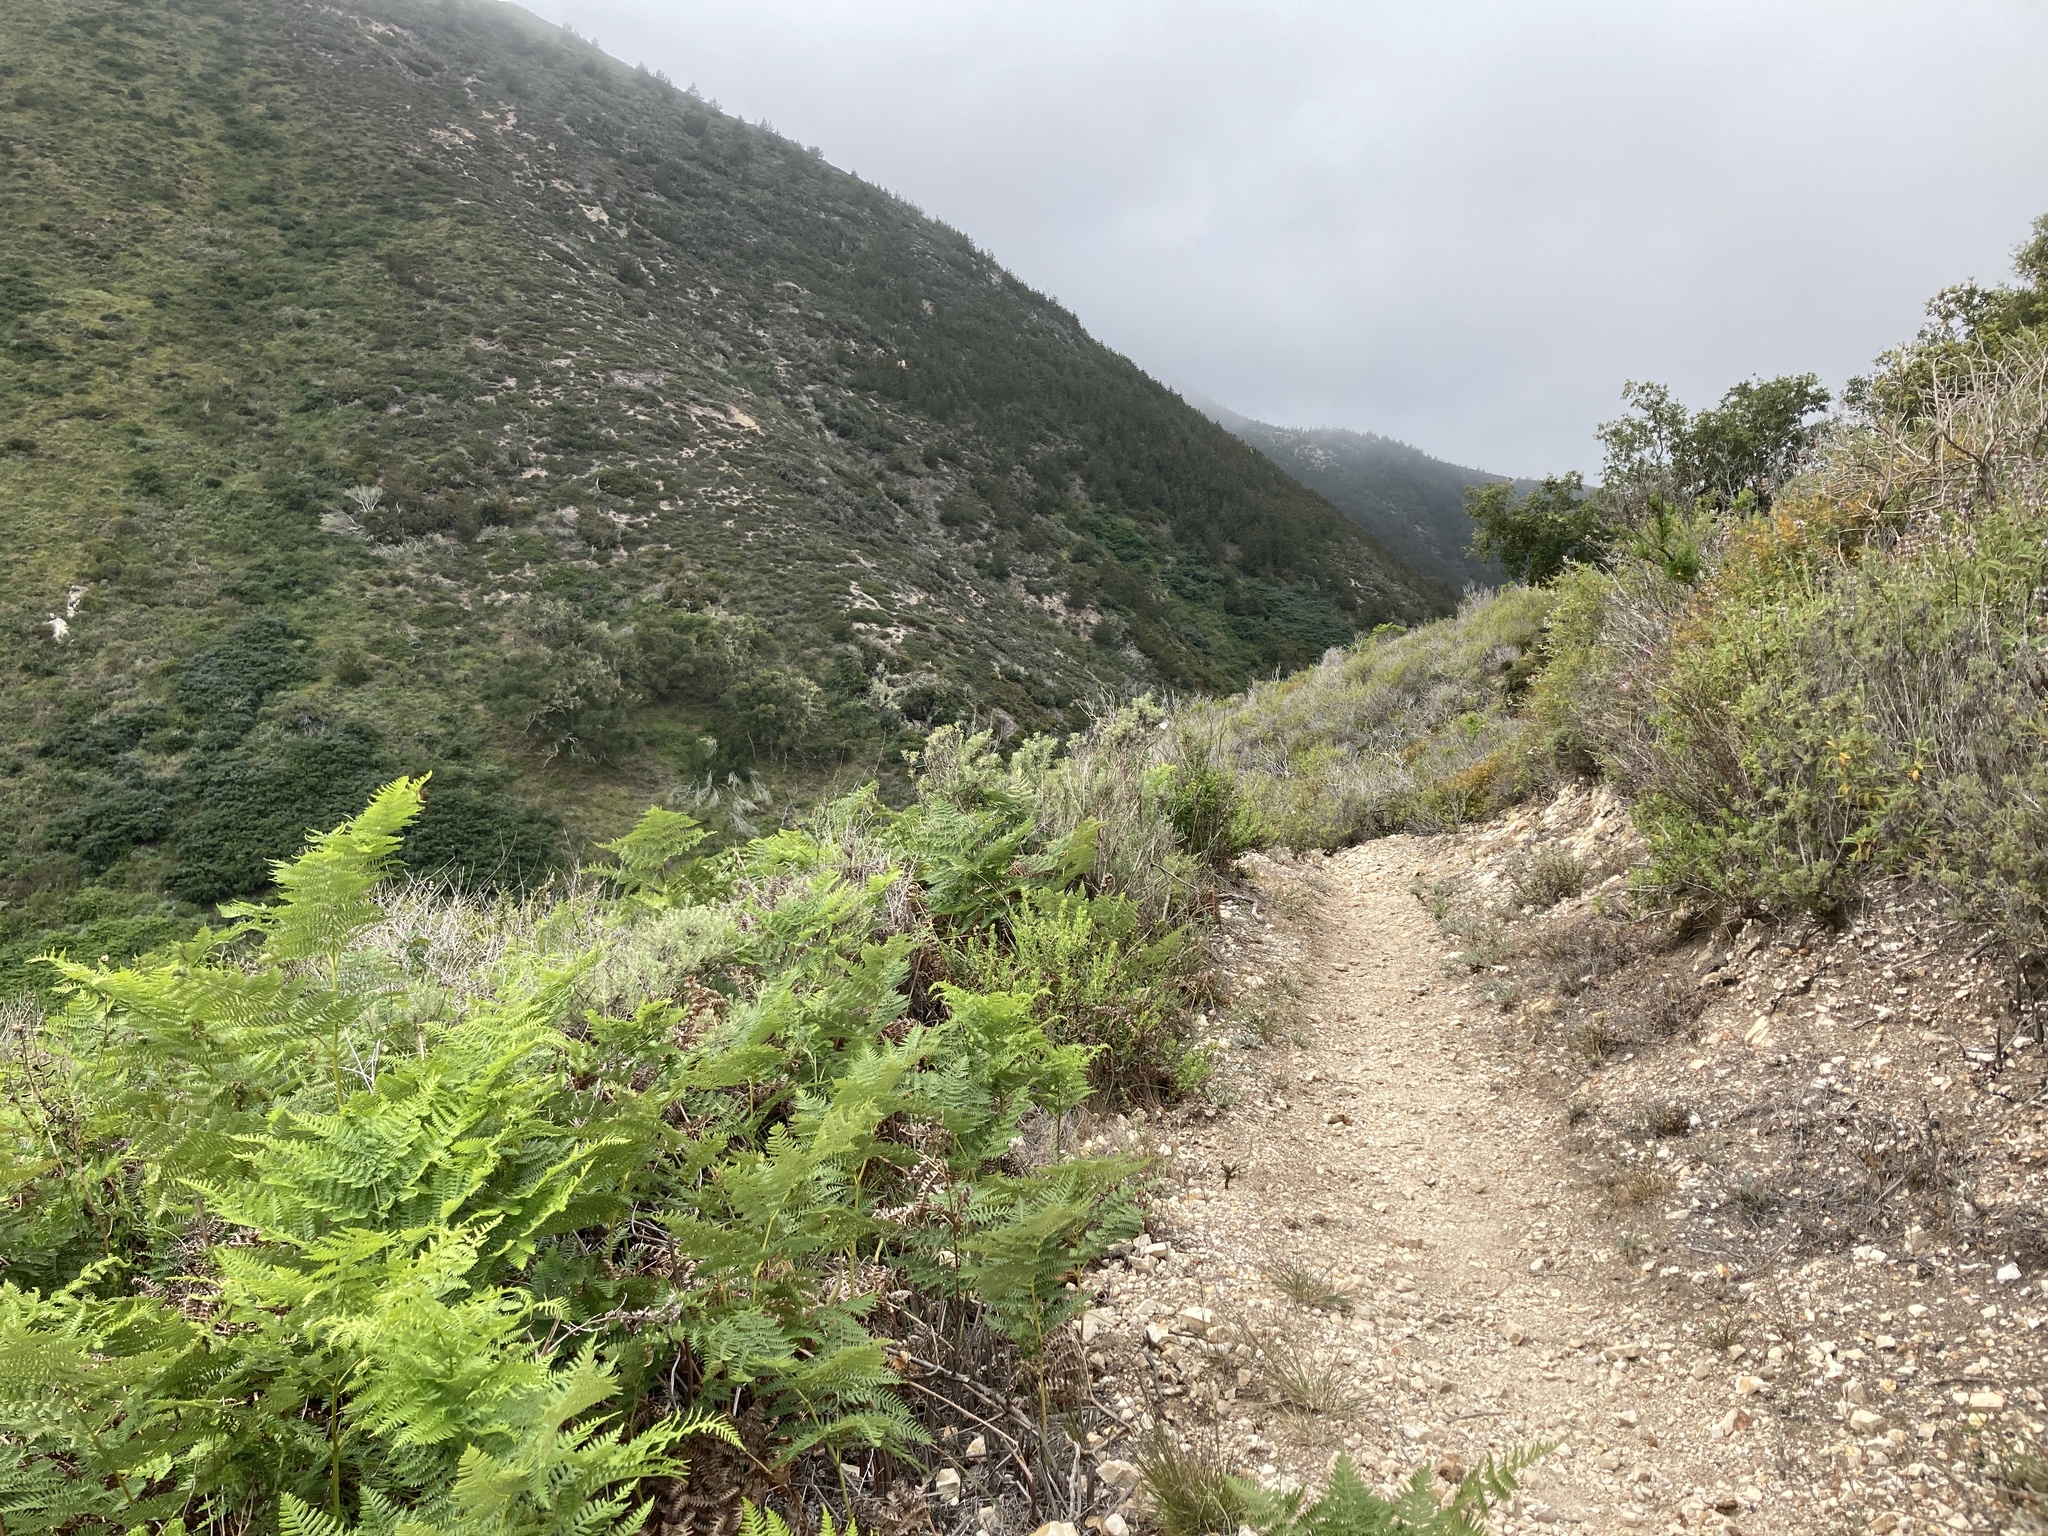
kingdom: Plantae
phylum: Tracheophyta
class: Polypodiopsida
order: Polypodiales
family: Dennstaedtiaceae
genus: Pteridium
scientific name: Pteridium aquilinum
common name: Bracken
